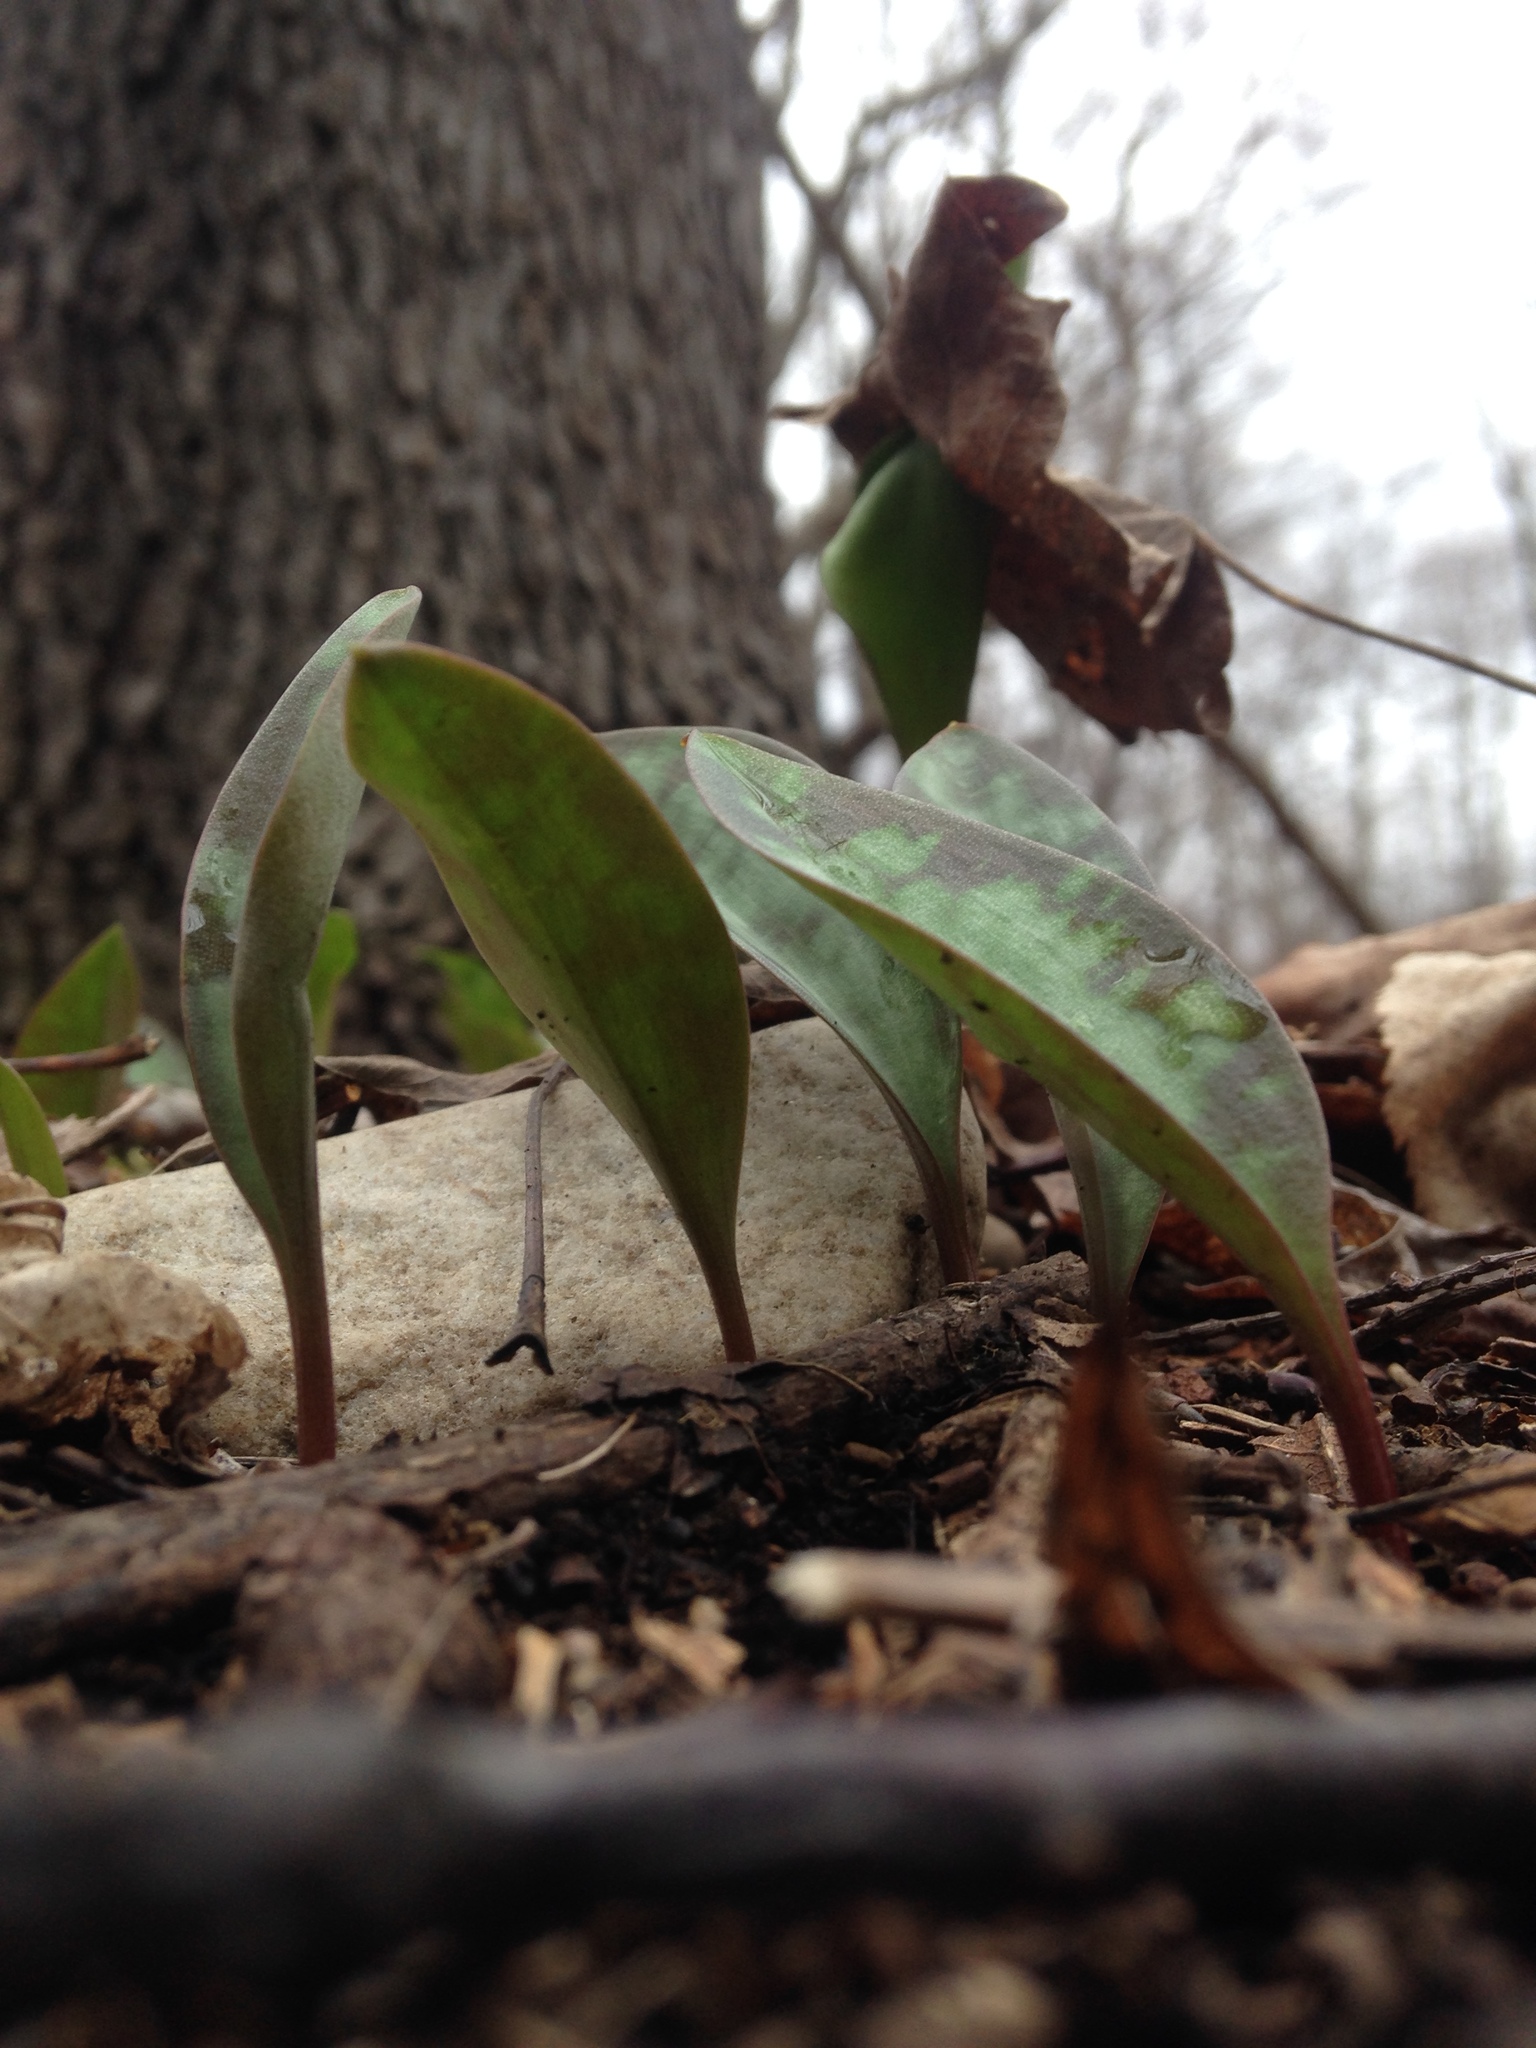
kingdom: Plantae
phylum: Tracheophyta
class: Liliopsida
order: Liliales
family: Liliaceae
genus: Erythronium
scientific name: Erythronium americanum
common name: Yellow adder's-tongue
